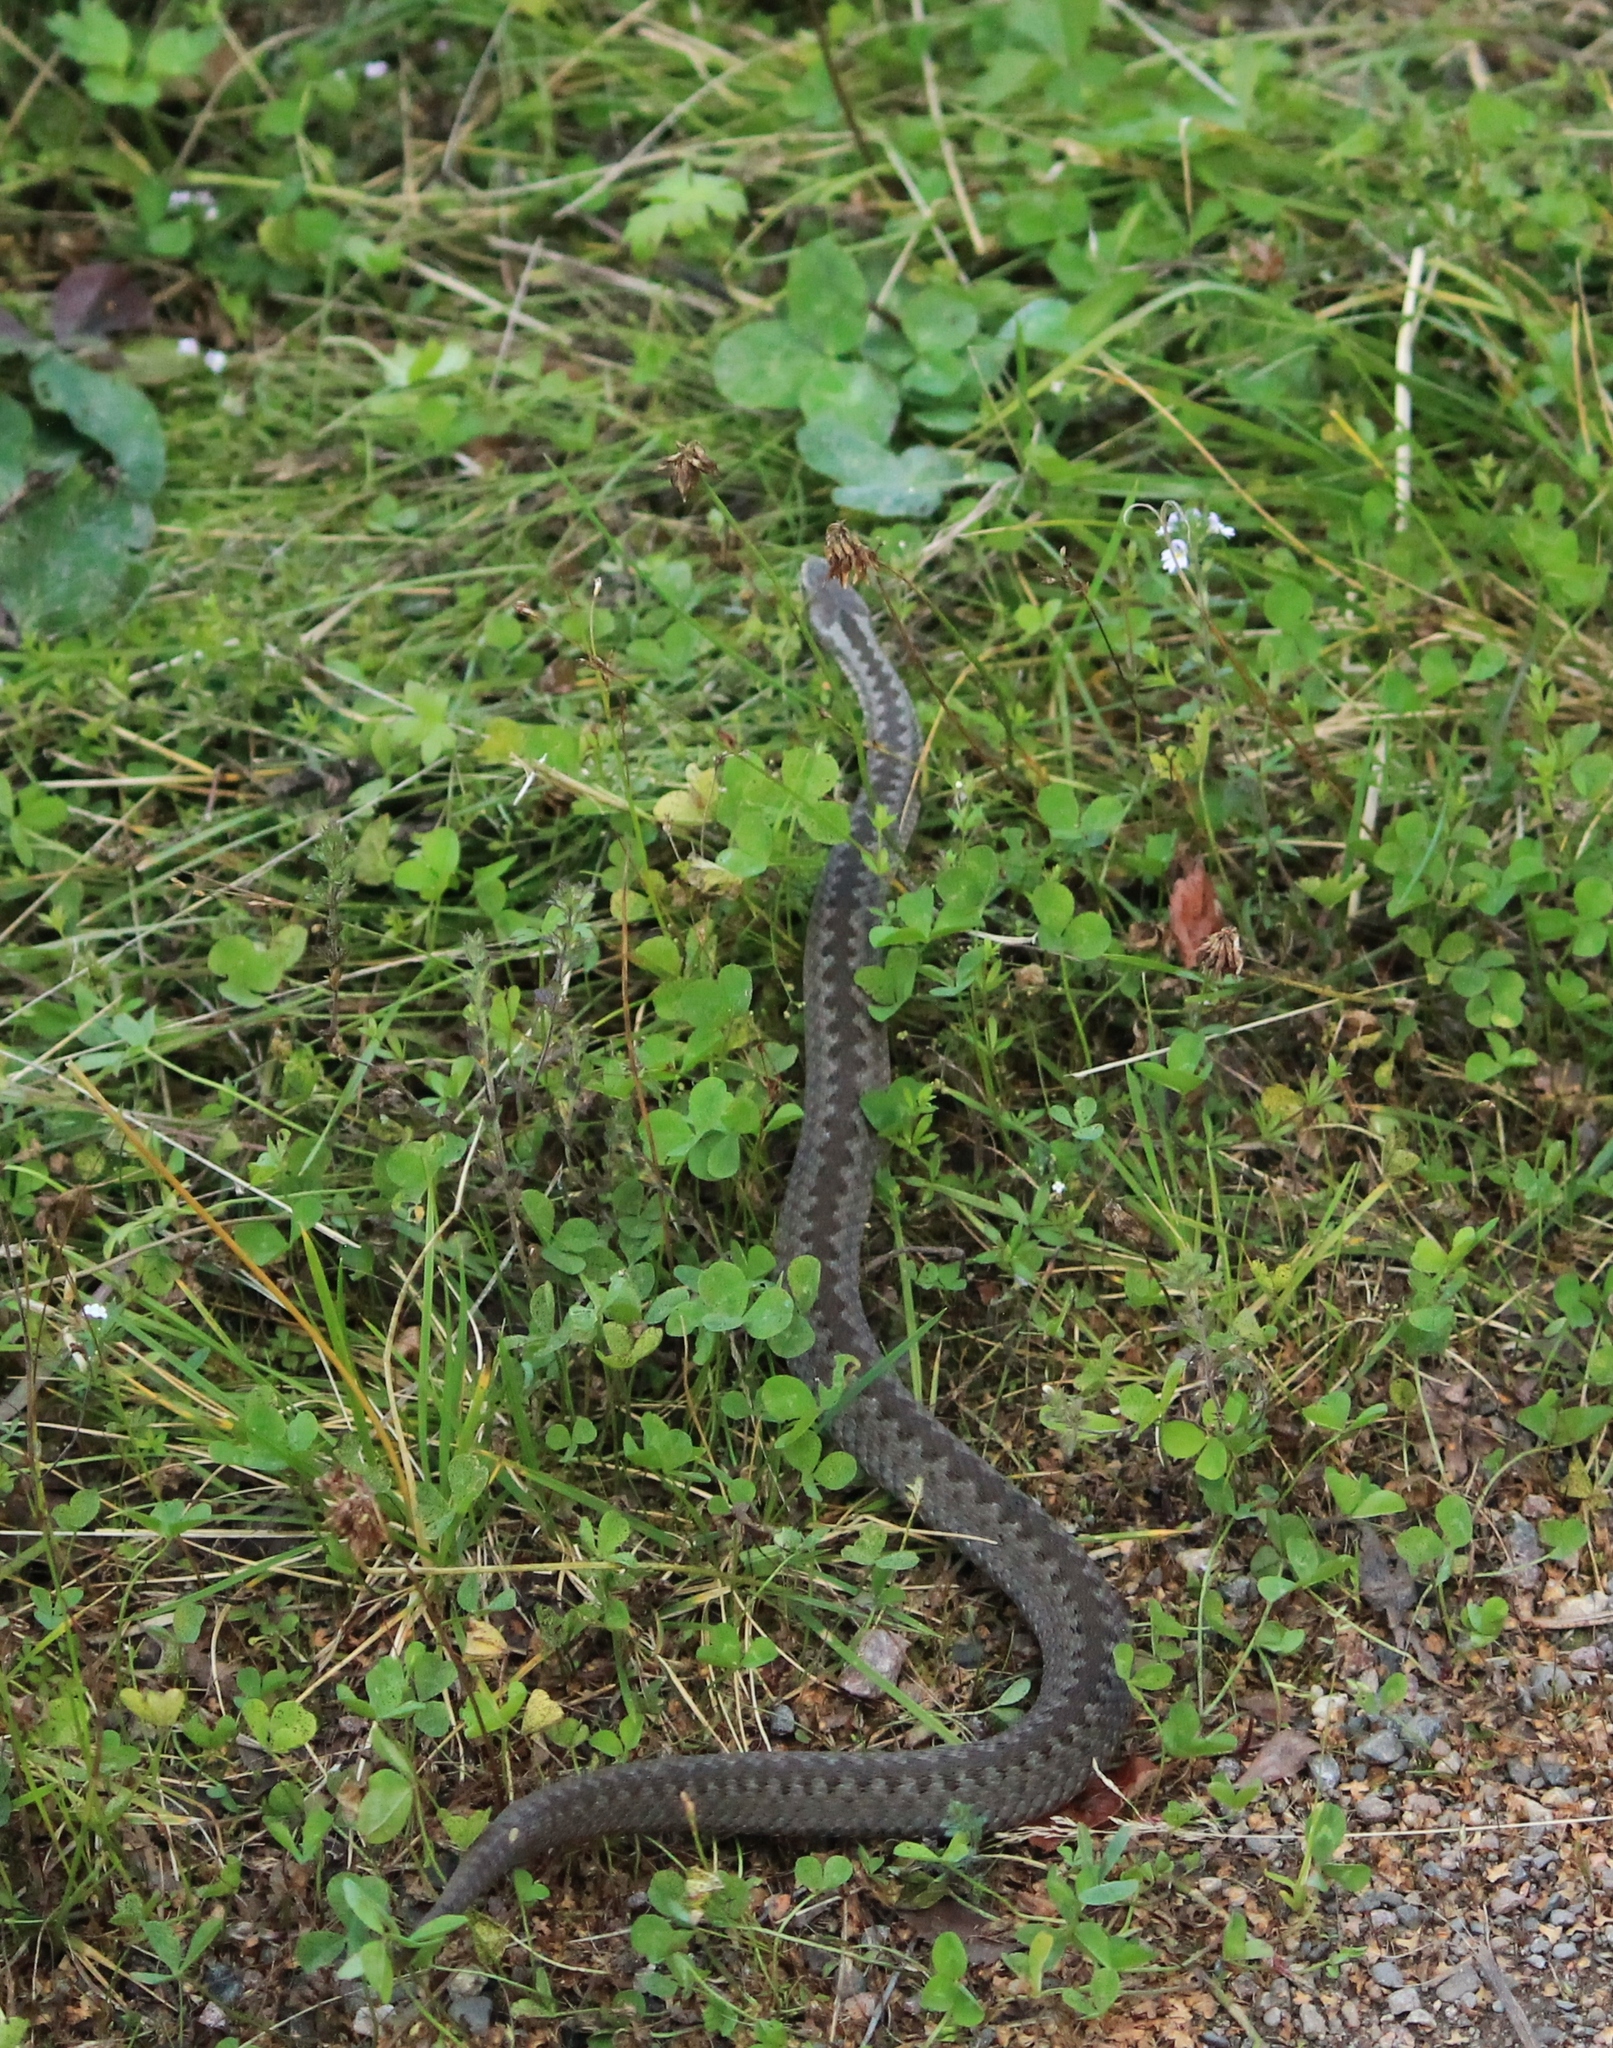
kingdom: Animalia
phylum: Chordata
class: Squamata
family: Viperidae
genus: Vipera
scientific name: Vipera berus
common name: Adder
